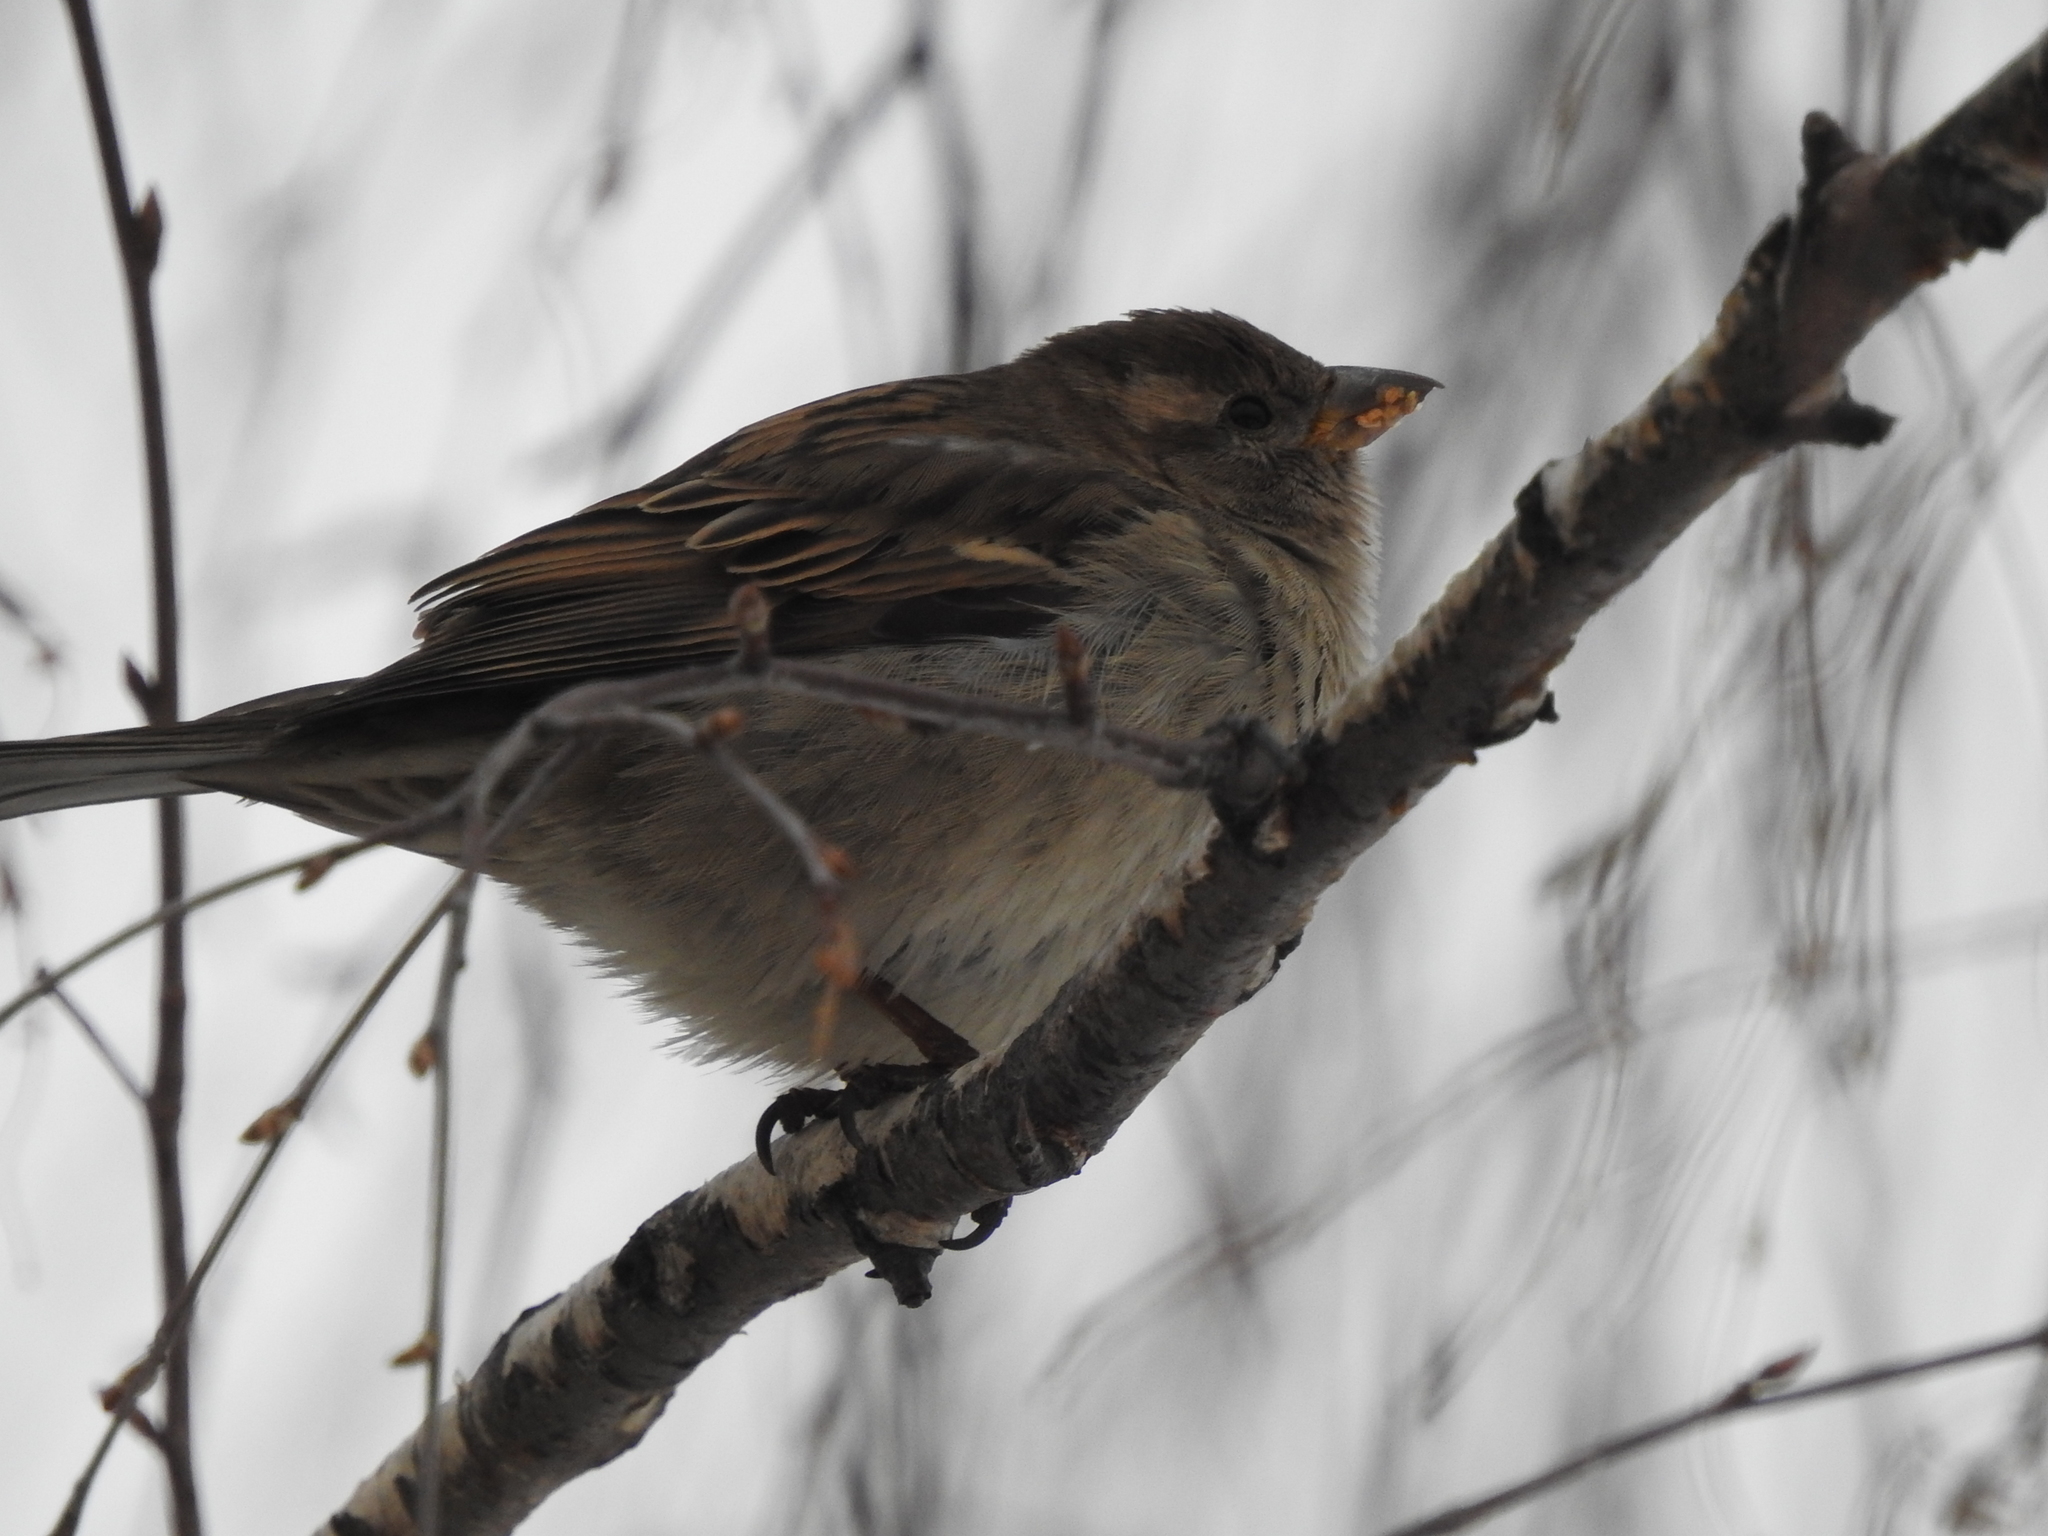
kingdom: Animalia
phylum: Chordata
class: Aves
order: Passeriformes
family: Passeridae
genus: Passer
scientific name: Passer domesticus
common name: House sparrow
